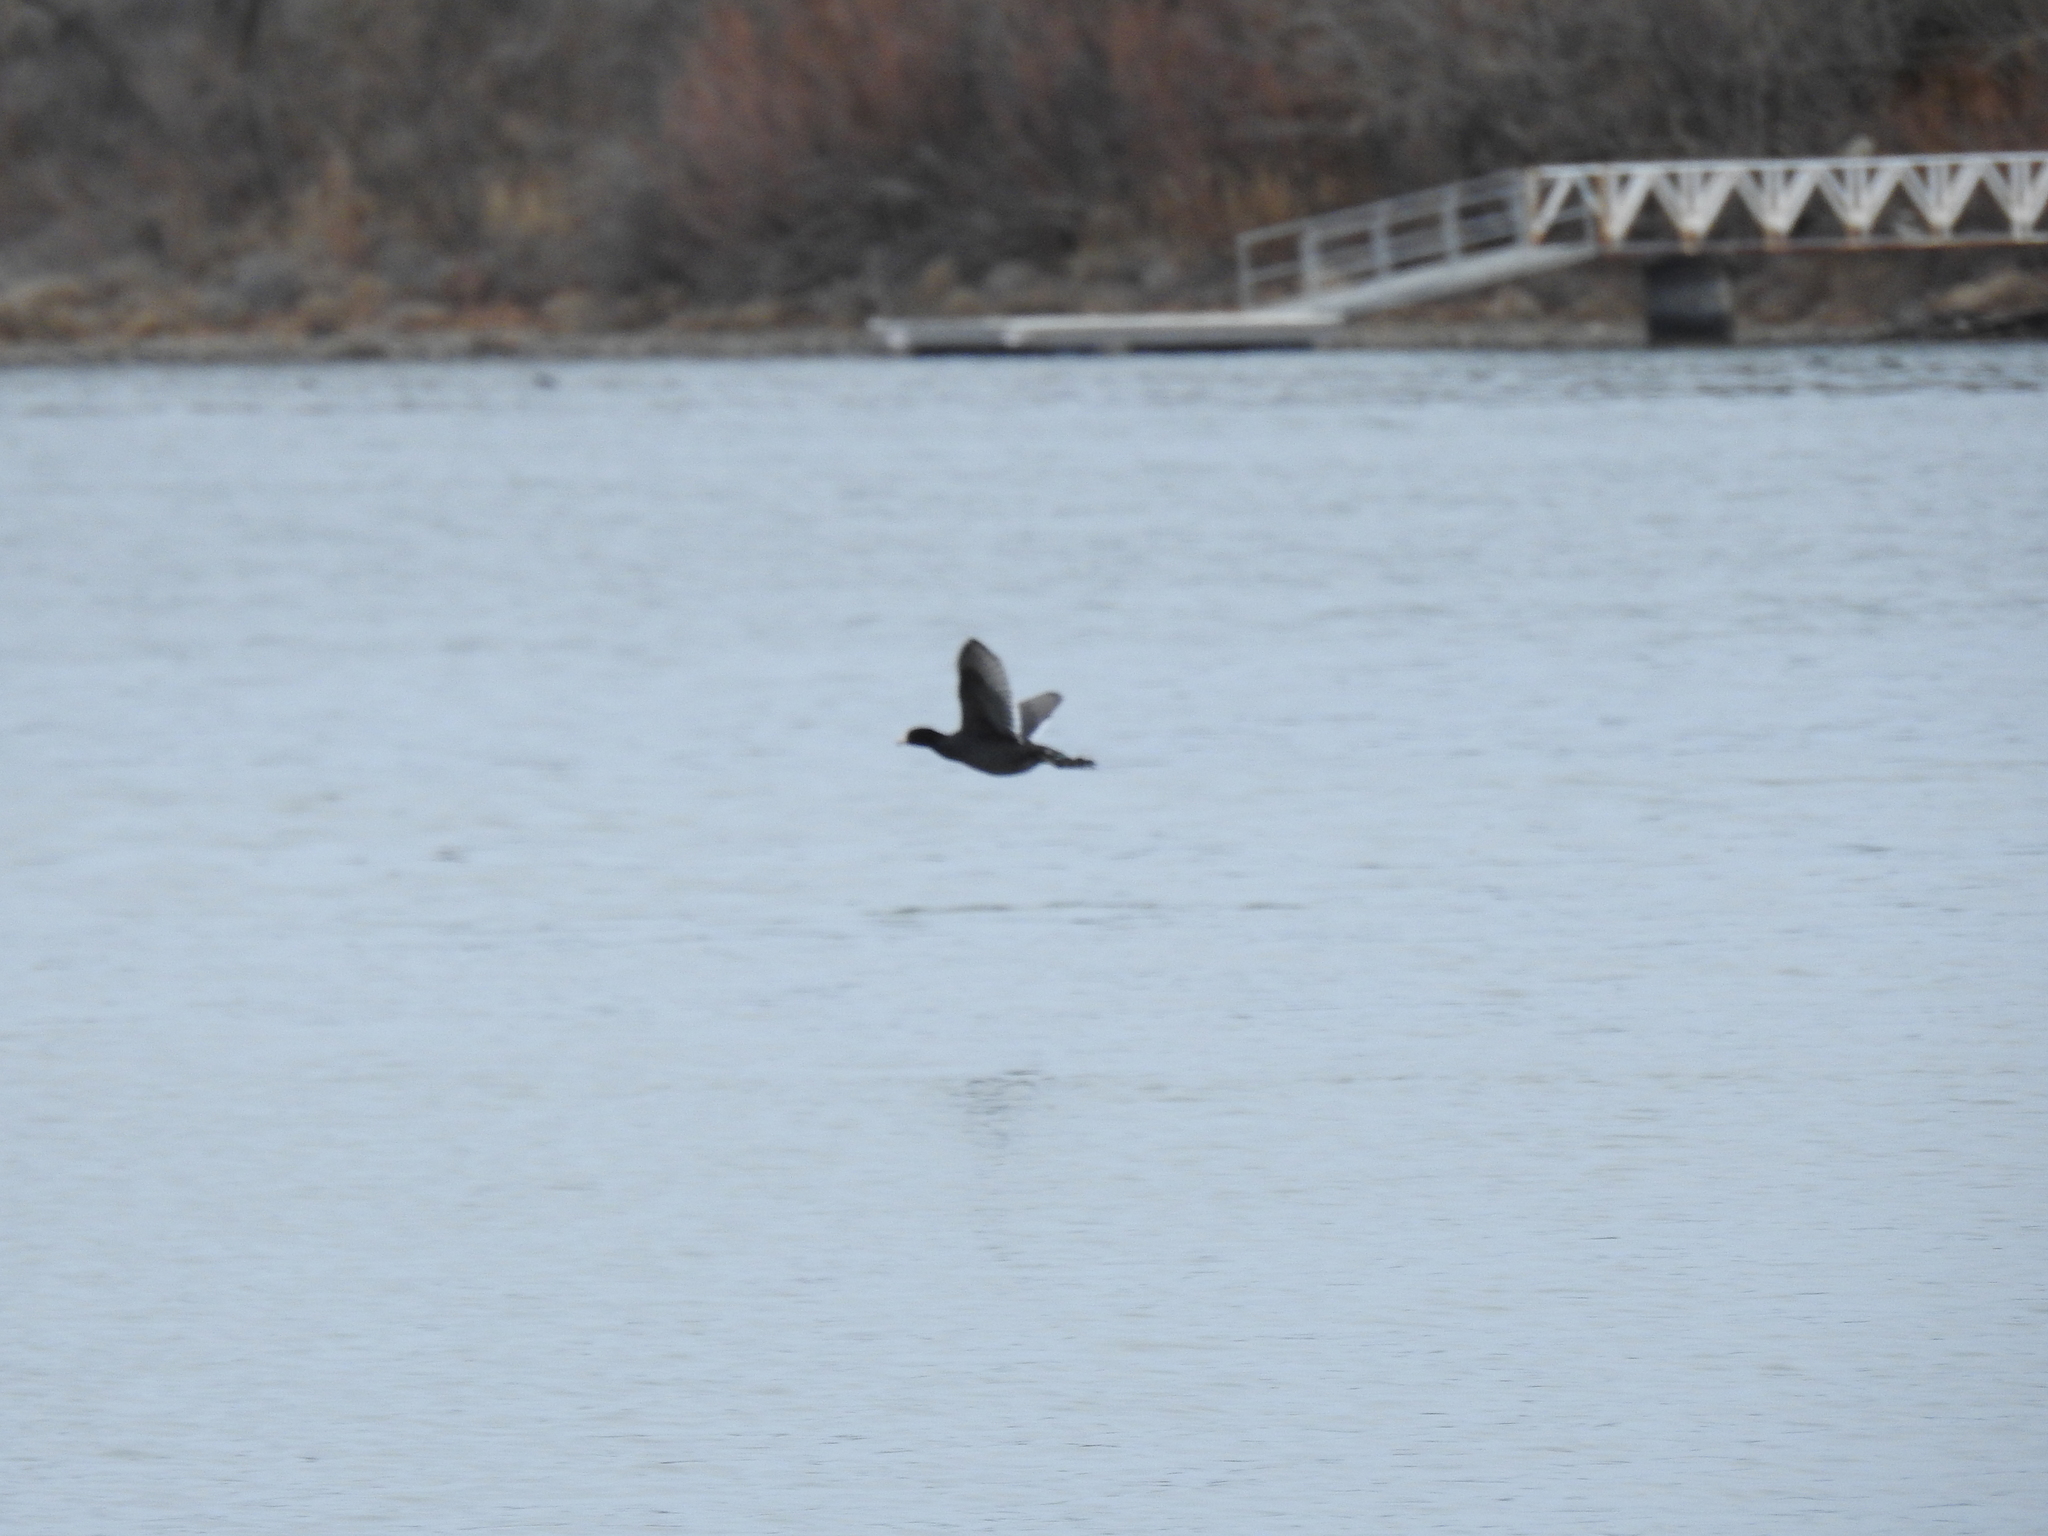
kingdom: Animalia
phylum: Chordata
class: Aves
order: Gruiformes
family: Rallidae
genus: Fulica
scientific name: Fulica americana
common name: American coot
